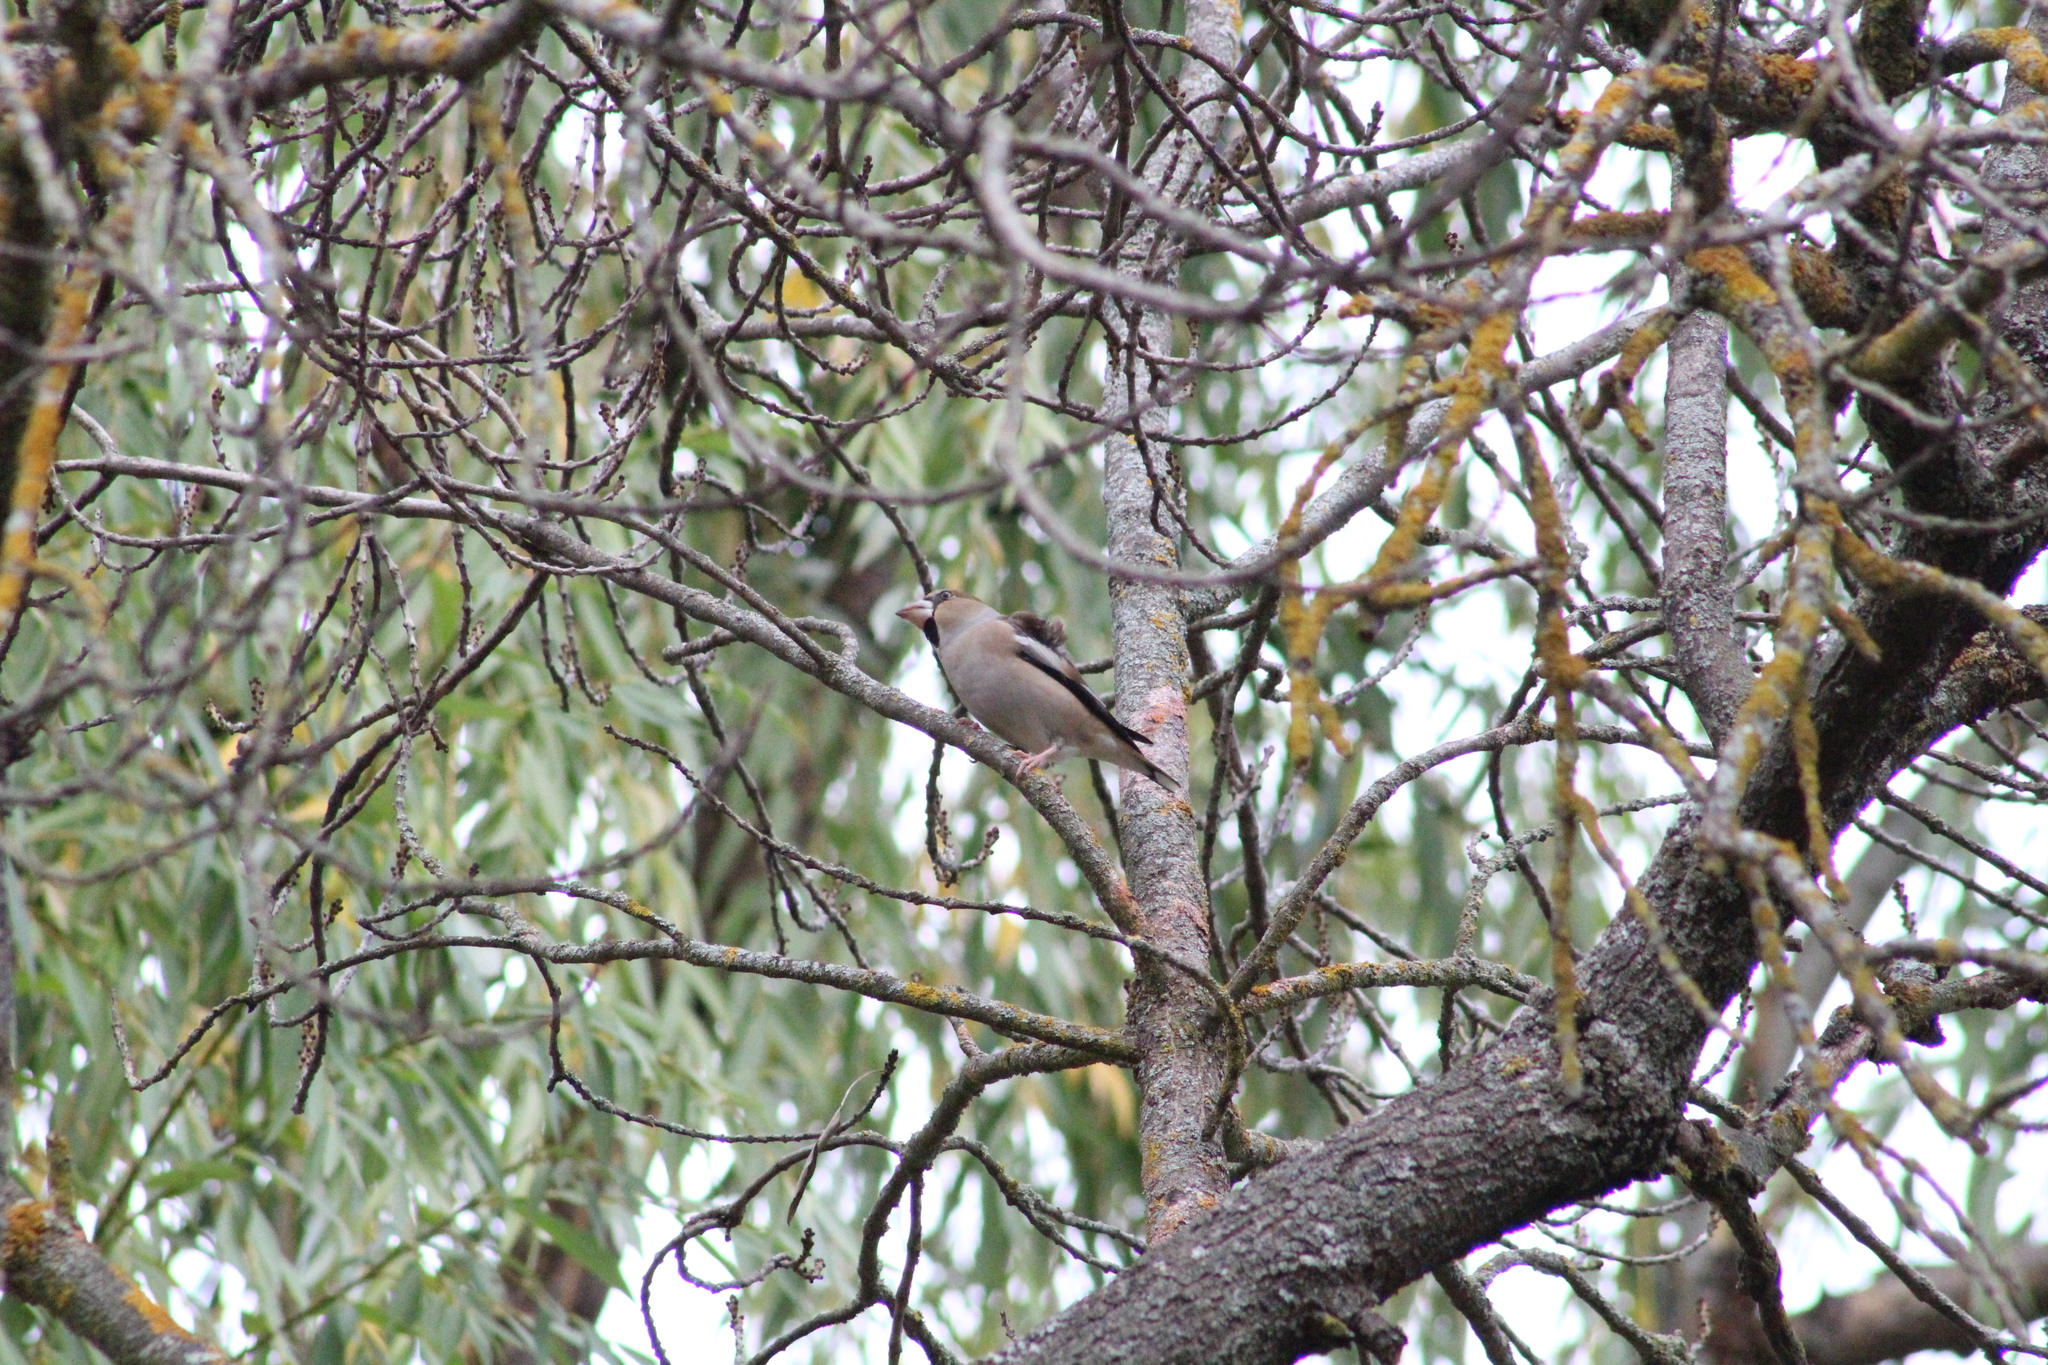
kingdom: Animalia
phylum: Chordata
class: Aves
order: Passeriformes
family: Fringillidae
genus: Coccothraustes
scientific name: Coccothraustes coccothraustes
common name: Hawfinch
